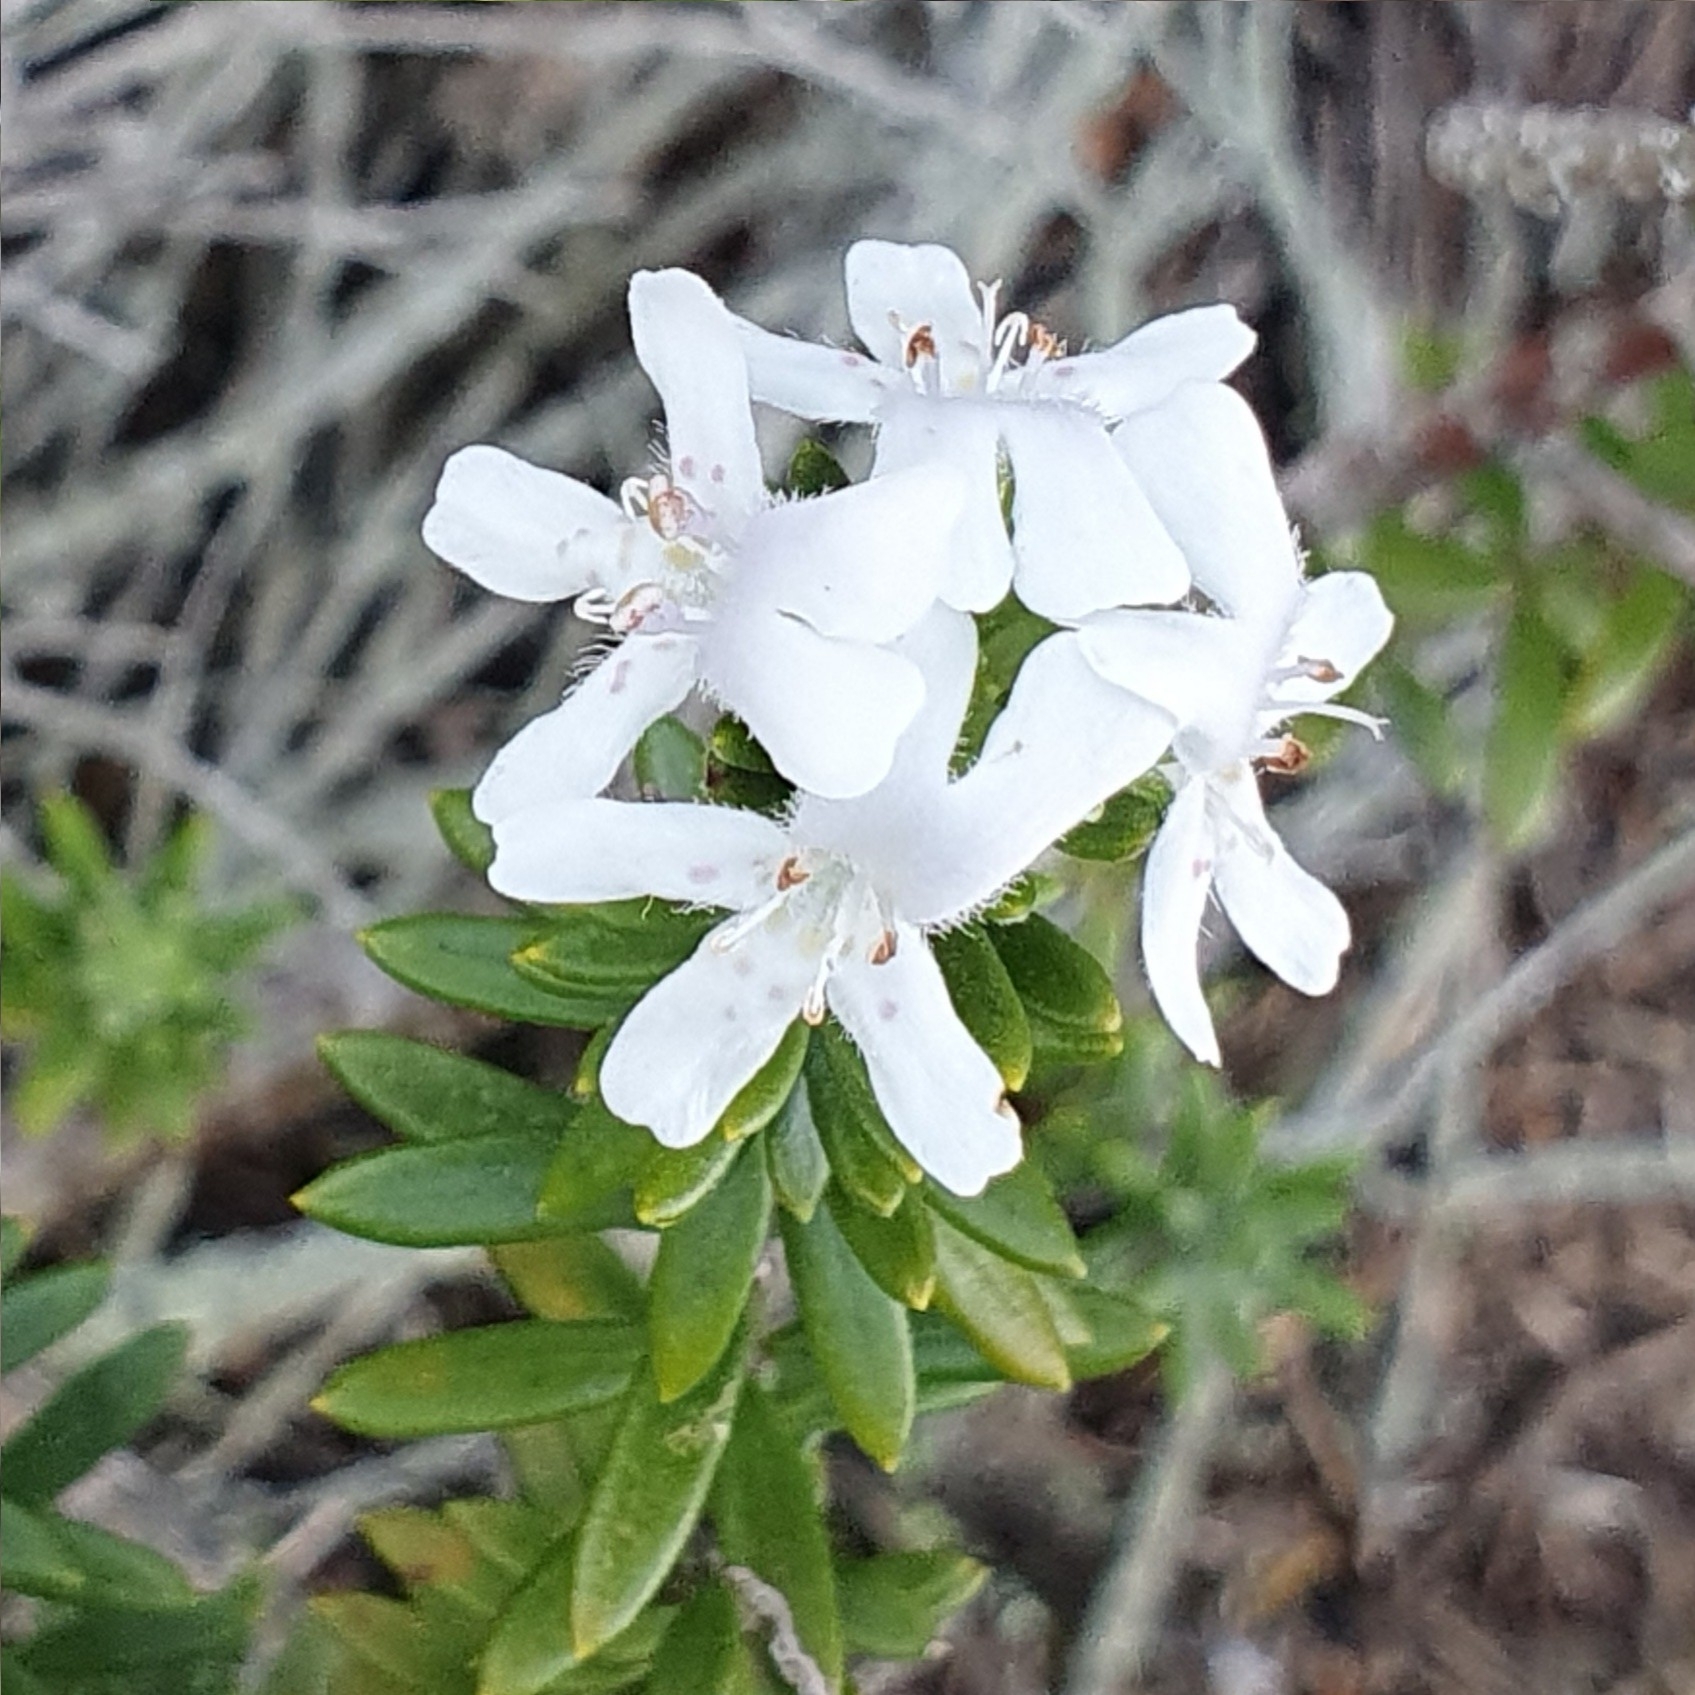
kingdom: Plantae
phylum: Tracheophyta
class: Magnoliopsida
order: Lamiales
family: Lamiaceae
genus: Westringia
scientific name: Westringia fruticosa
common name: Coastal-rosemary
